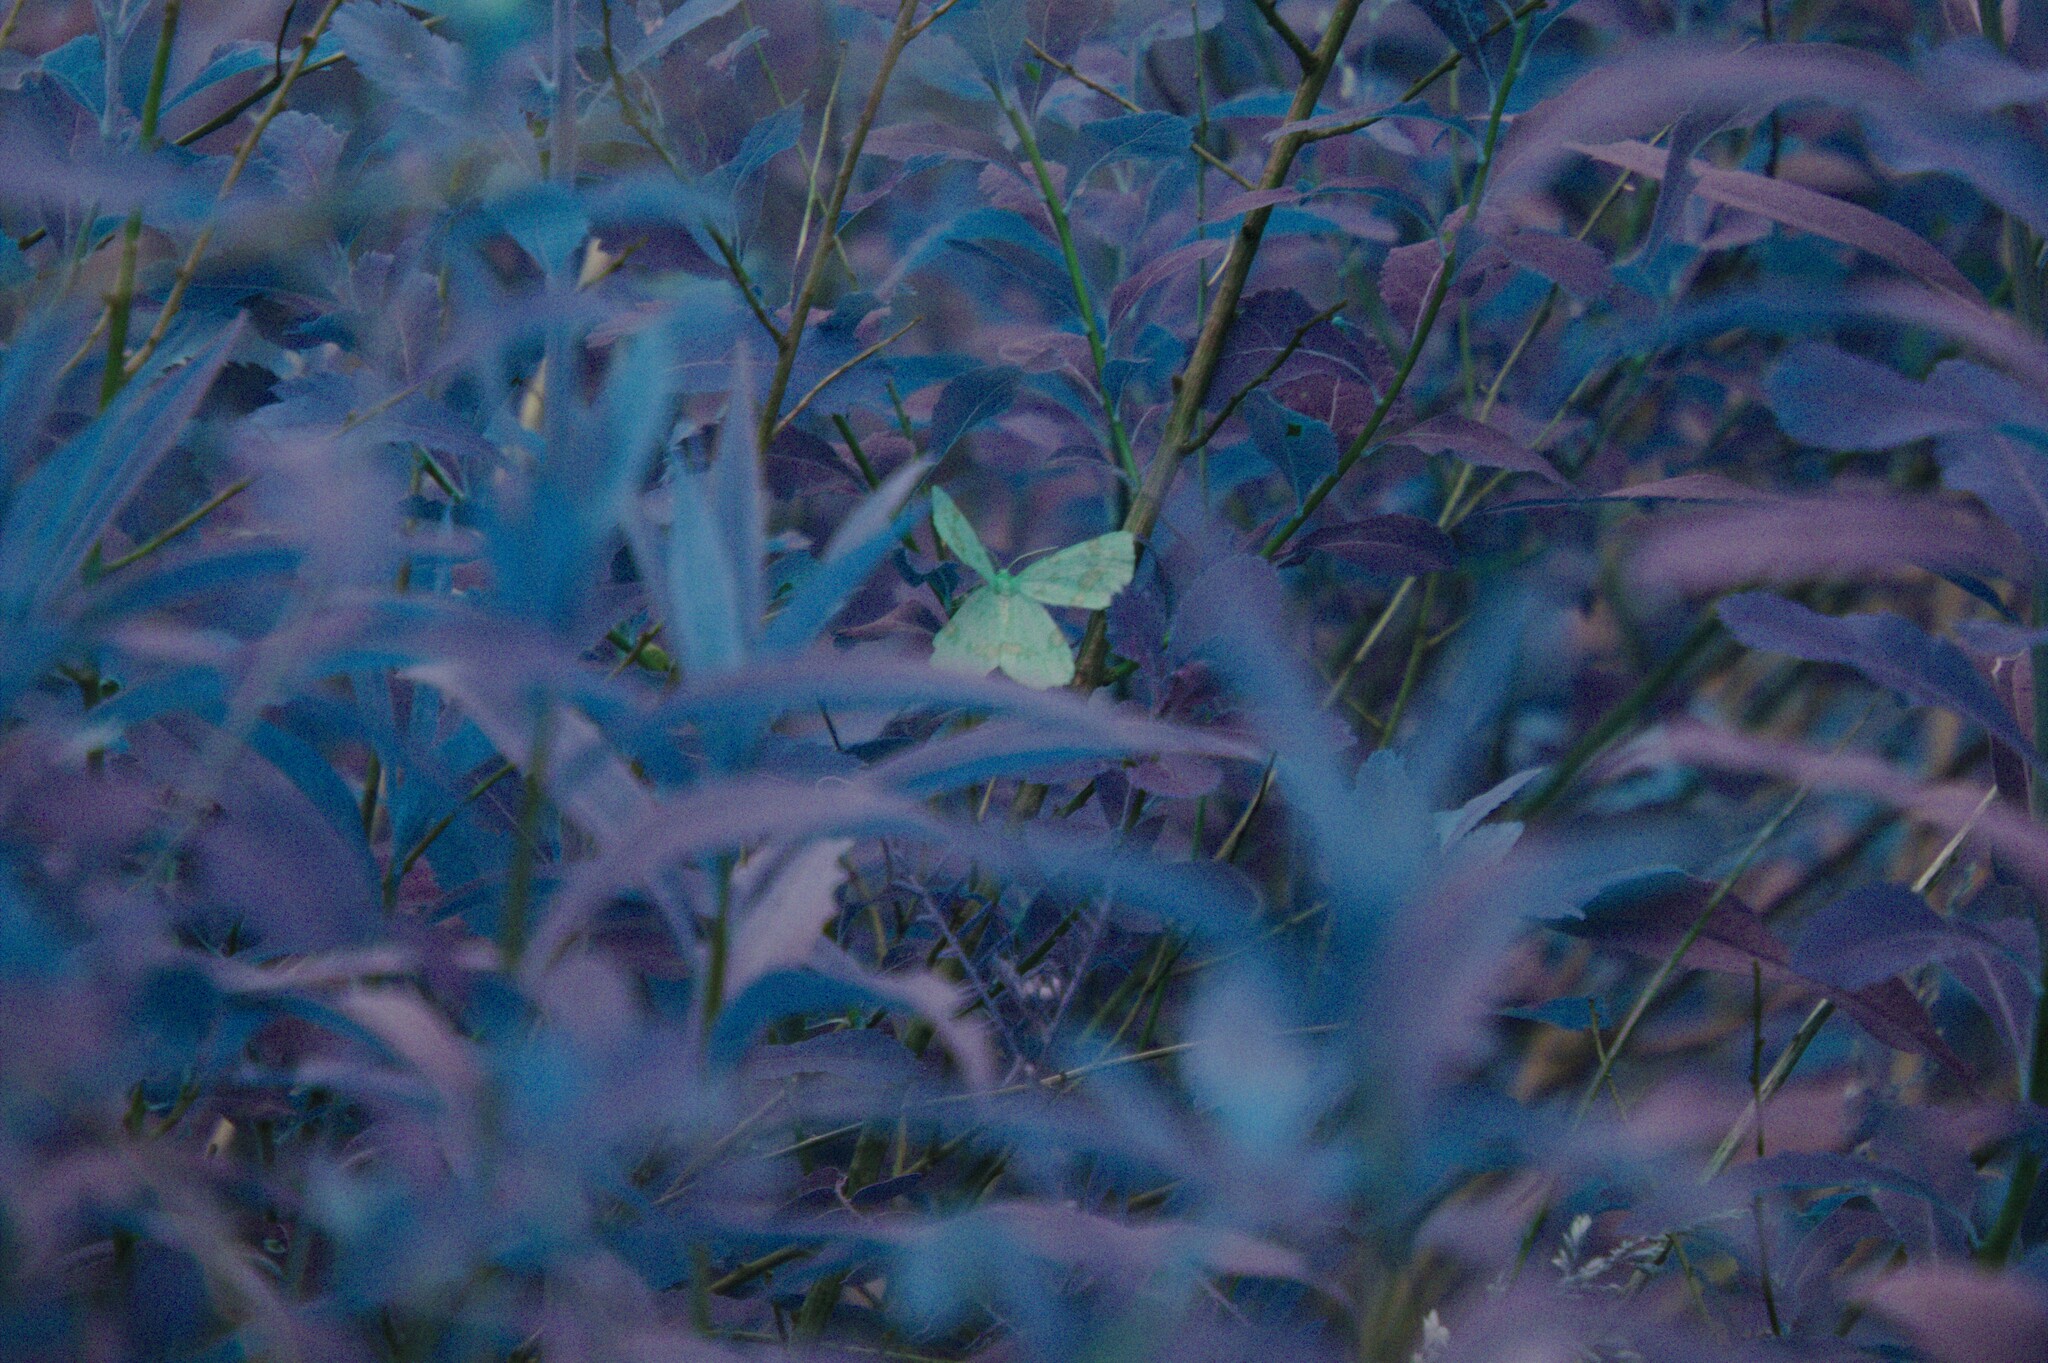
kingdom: Animalia
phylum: Arthropoda
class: Insecta
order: Lepidoptera
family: Geometridae
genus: Xanthotype
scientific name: Xanthotype
